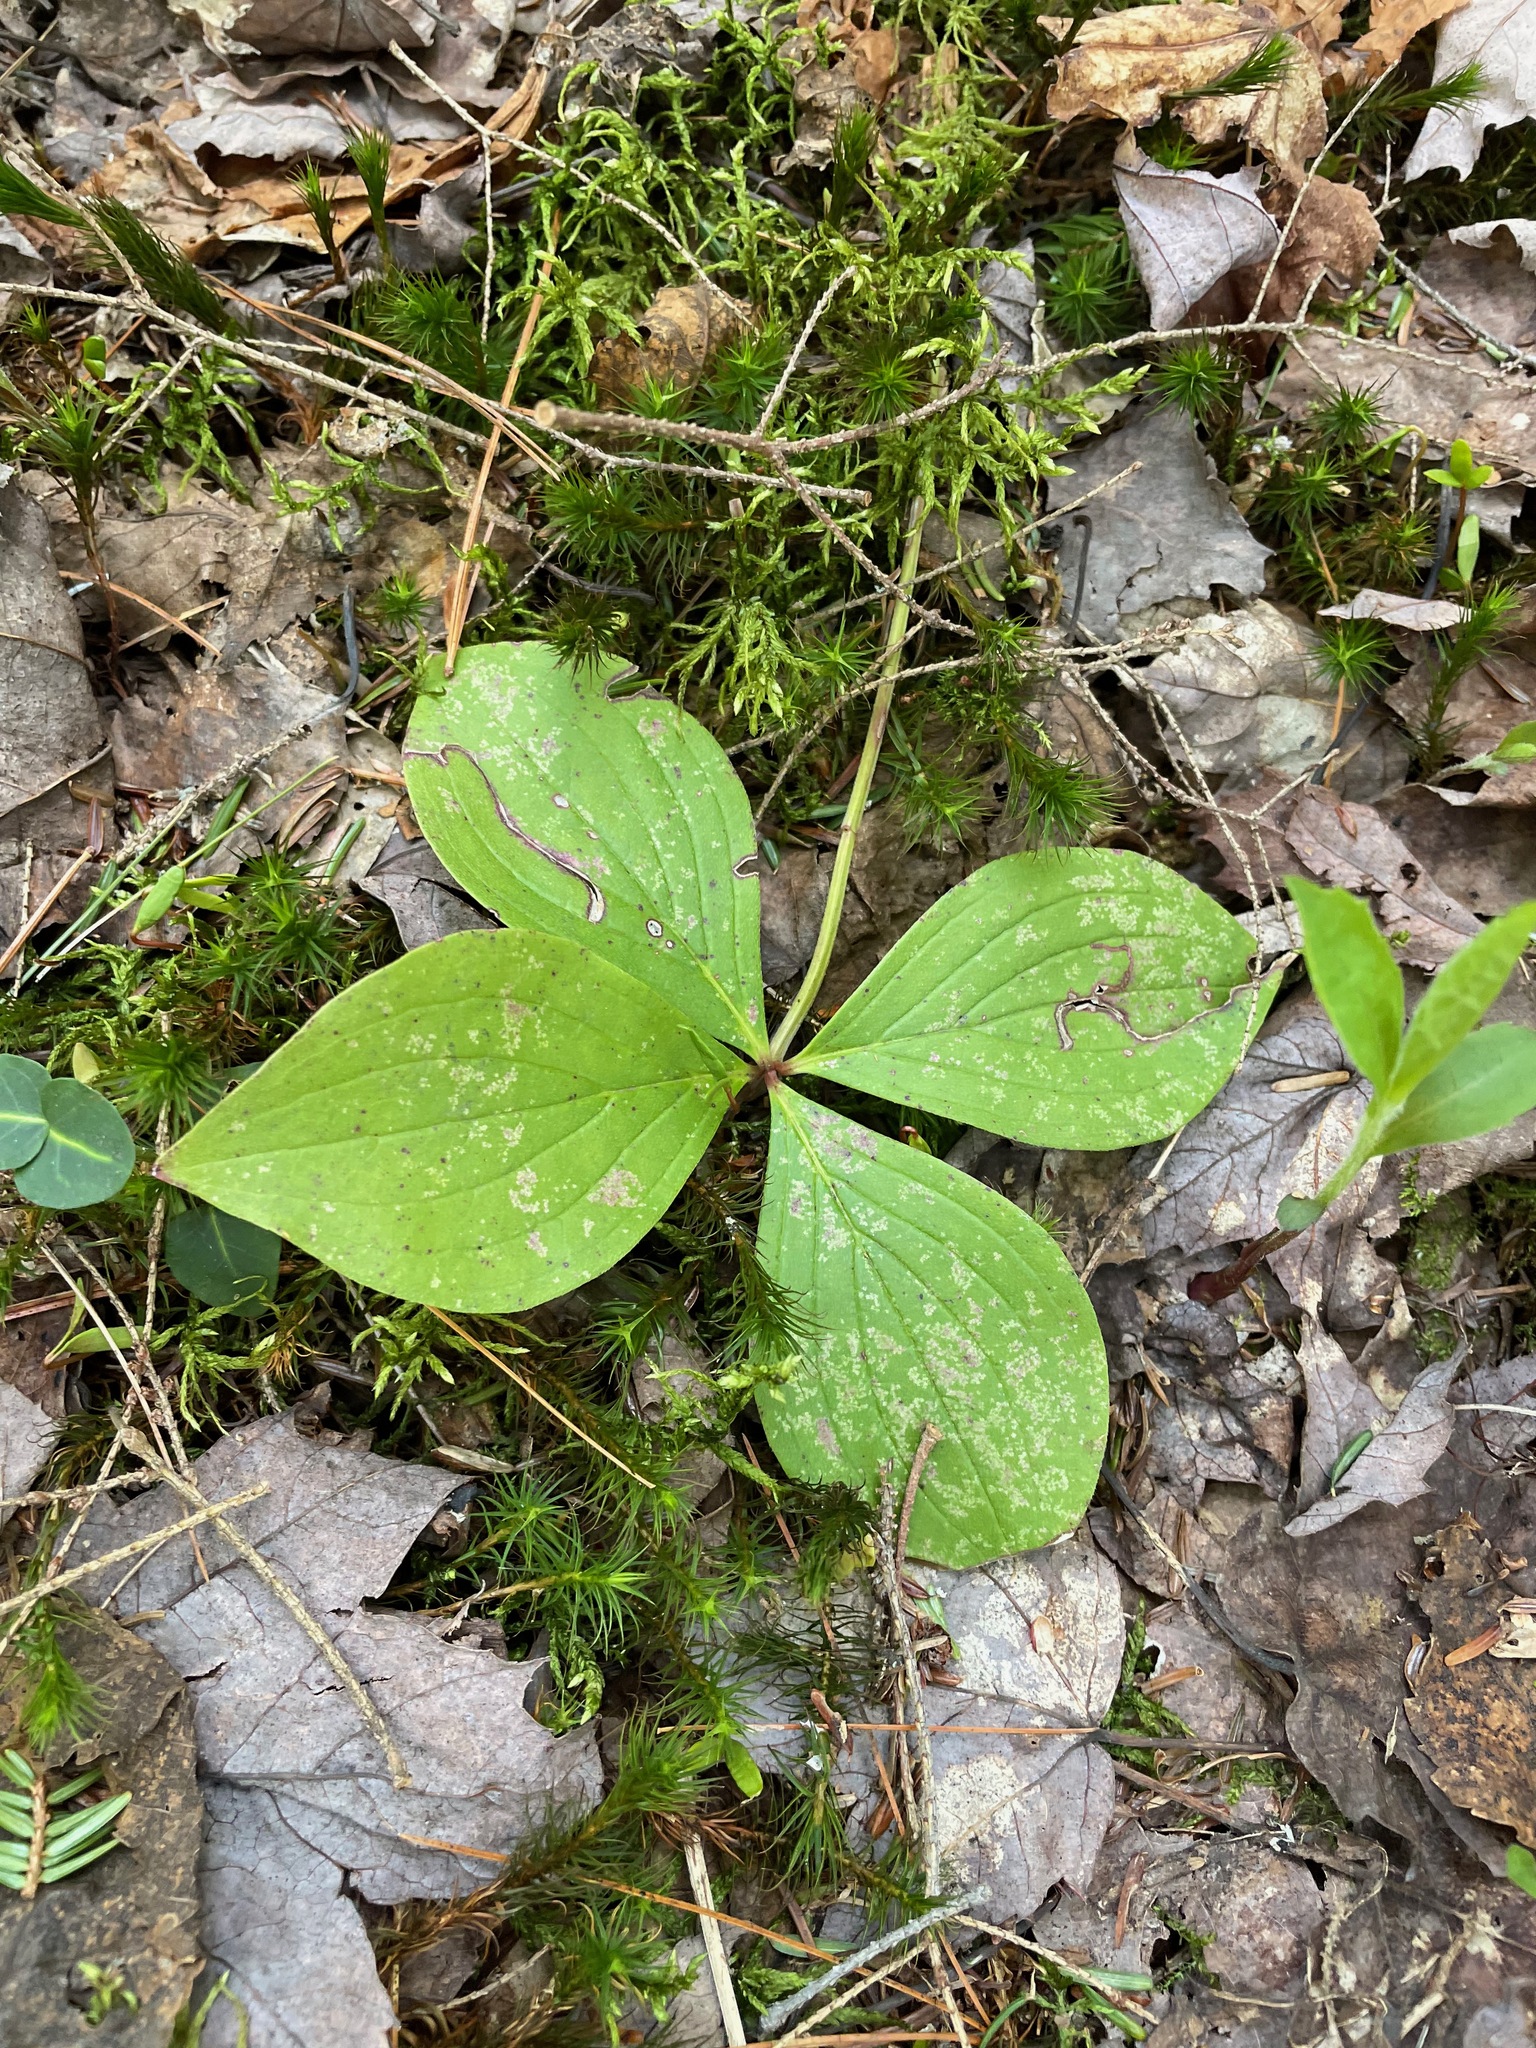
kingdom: Plantae
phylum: Tracheophyta
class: Magnoliopsida
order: Cornales
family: Cornaceae
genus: Cornus
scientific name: Cornus canadensis
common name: Creeping dogwood
